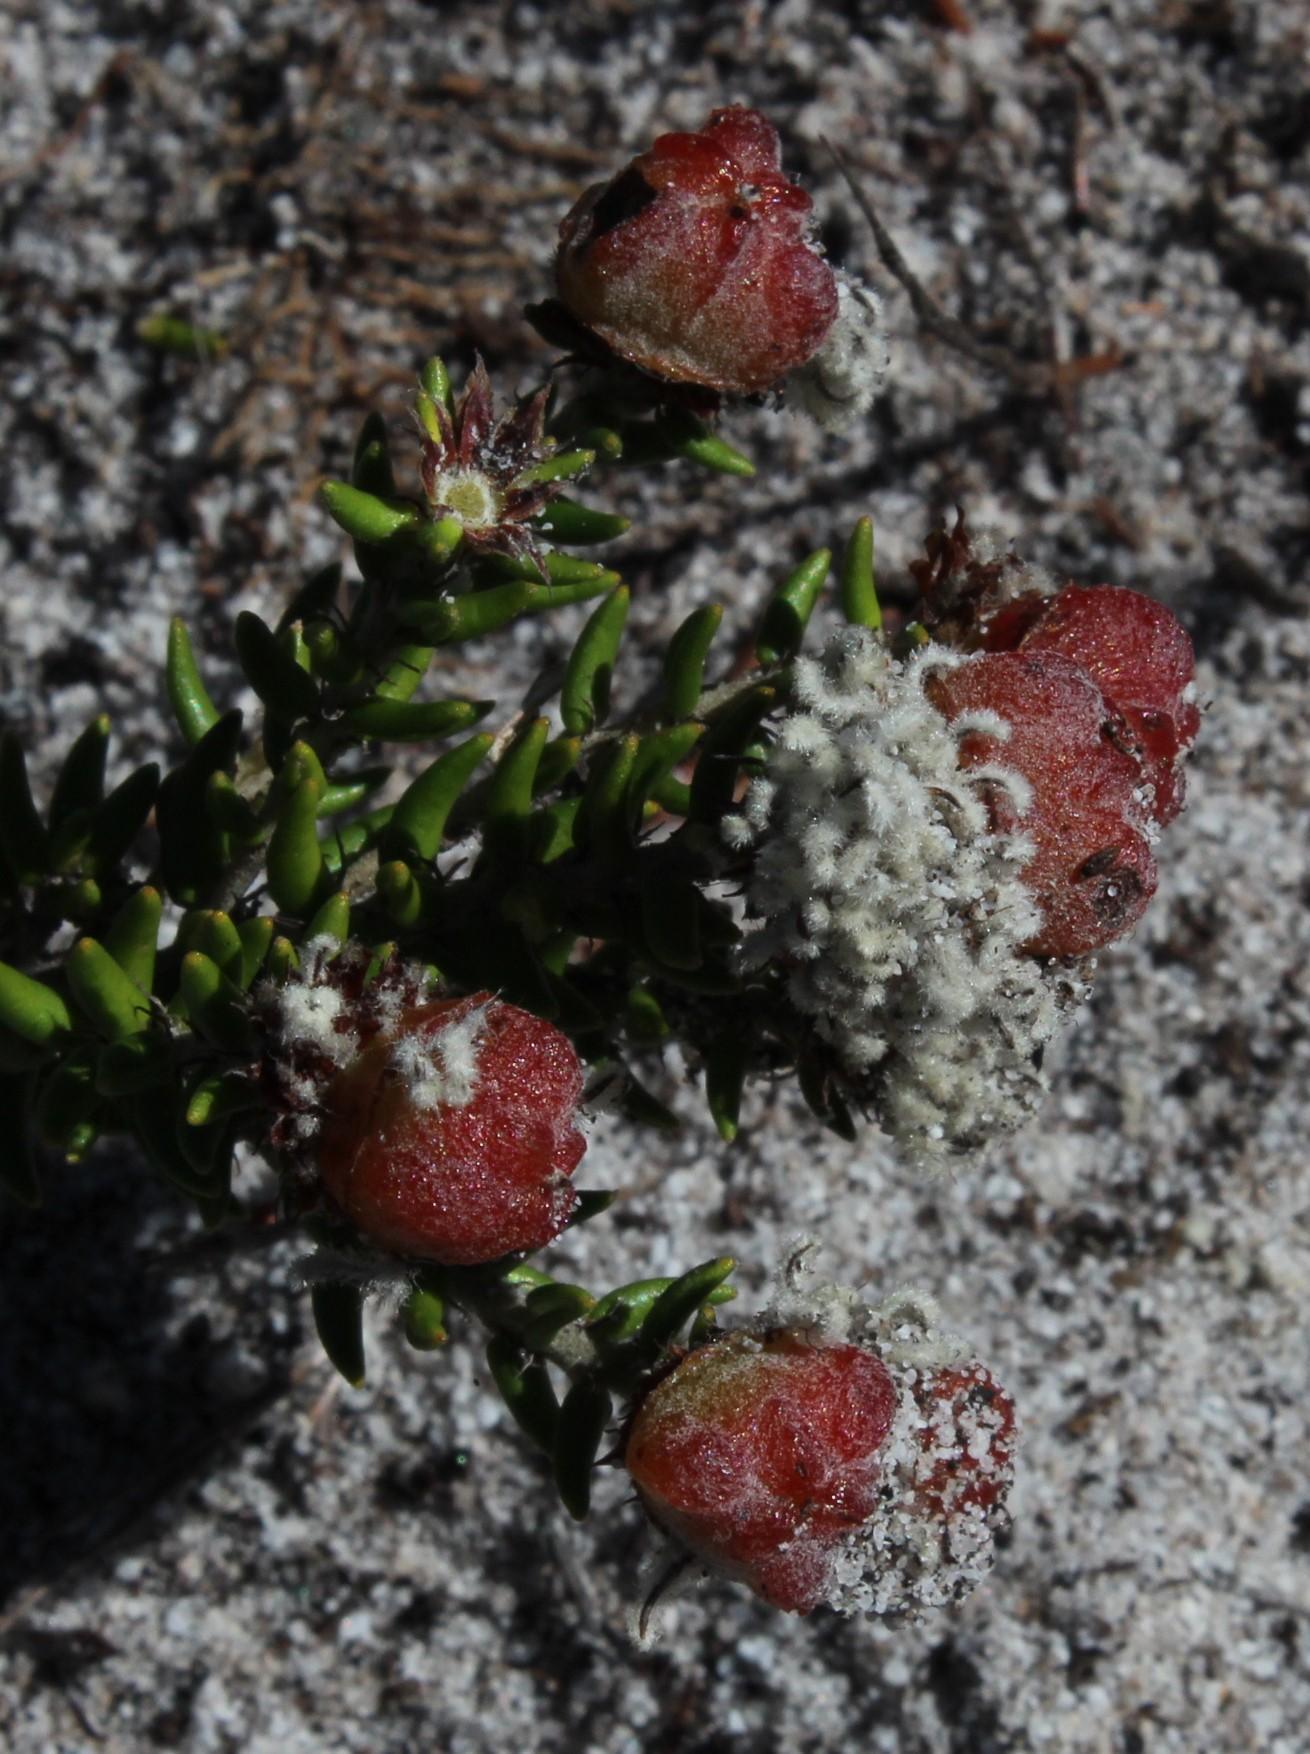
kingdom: Plantae
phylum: Tracheophyta
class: Magnoliopsida
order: Rosales
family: Rhamnaceae
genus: Trichocephalus
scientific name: Trichocephalus stipularis
